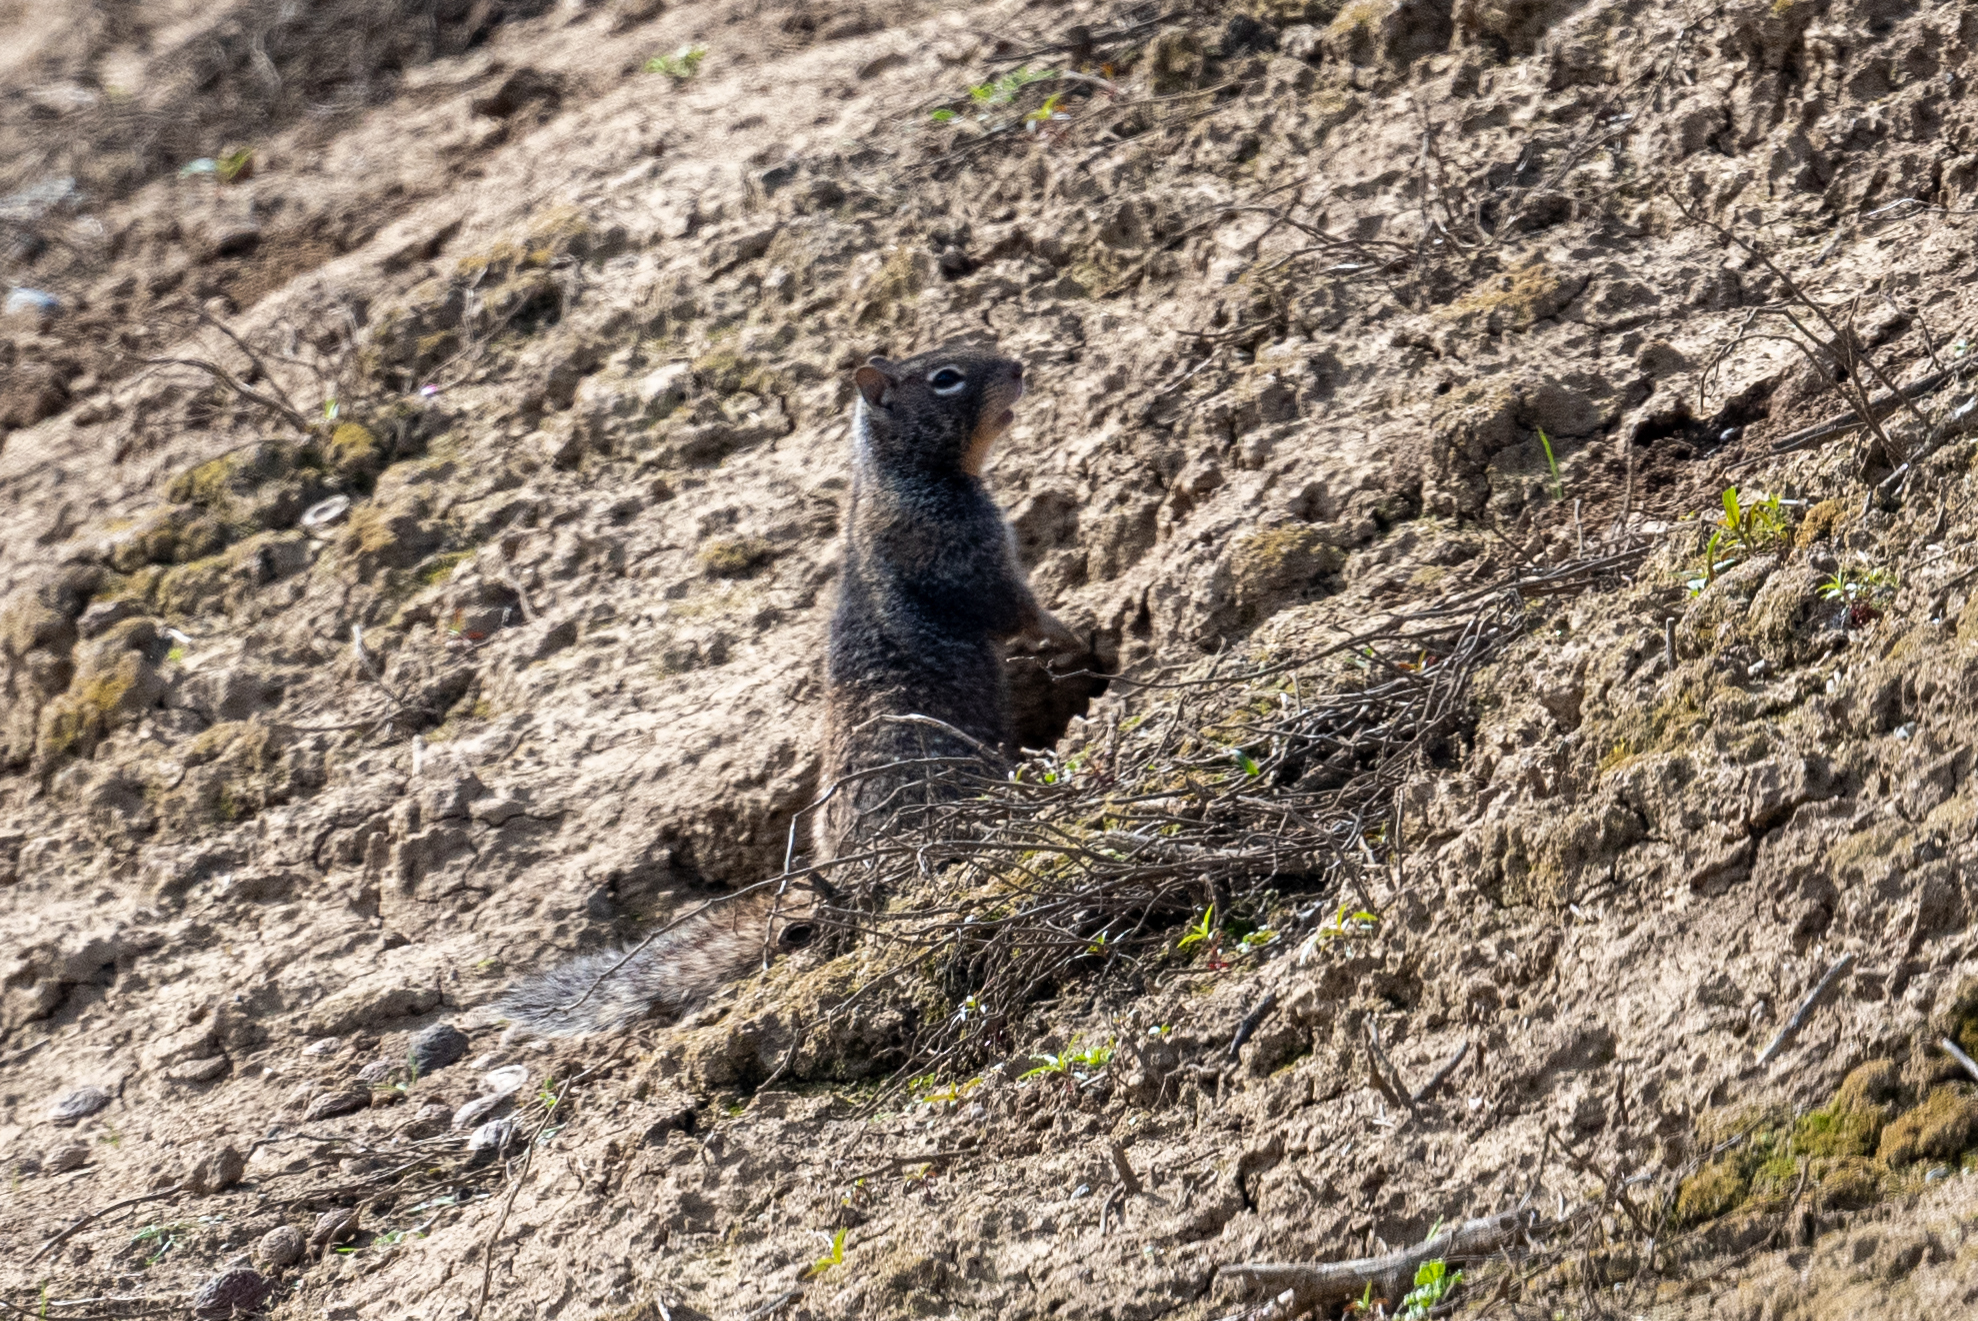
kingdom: Animalia
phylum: Chordata
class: Mammalia
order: Rodentia
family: Sciuridae
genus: Otospermophilus
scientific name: Otospermophilus beecheyi
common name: California ground squirrel
